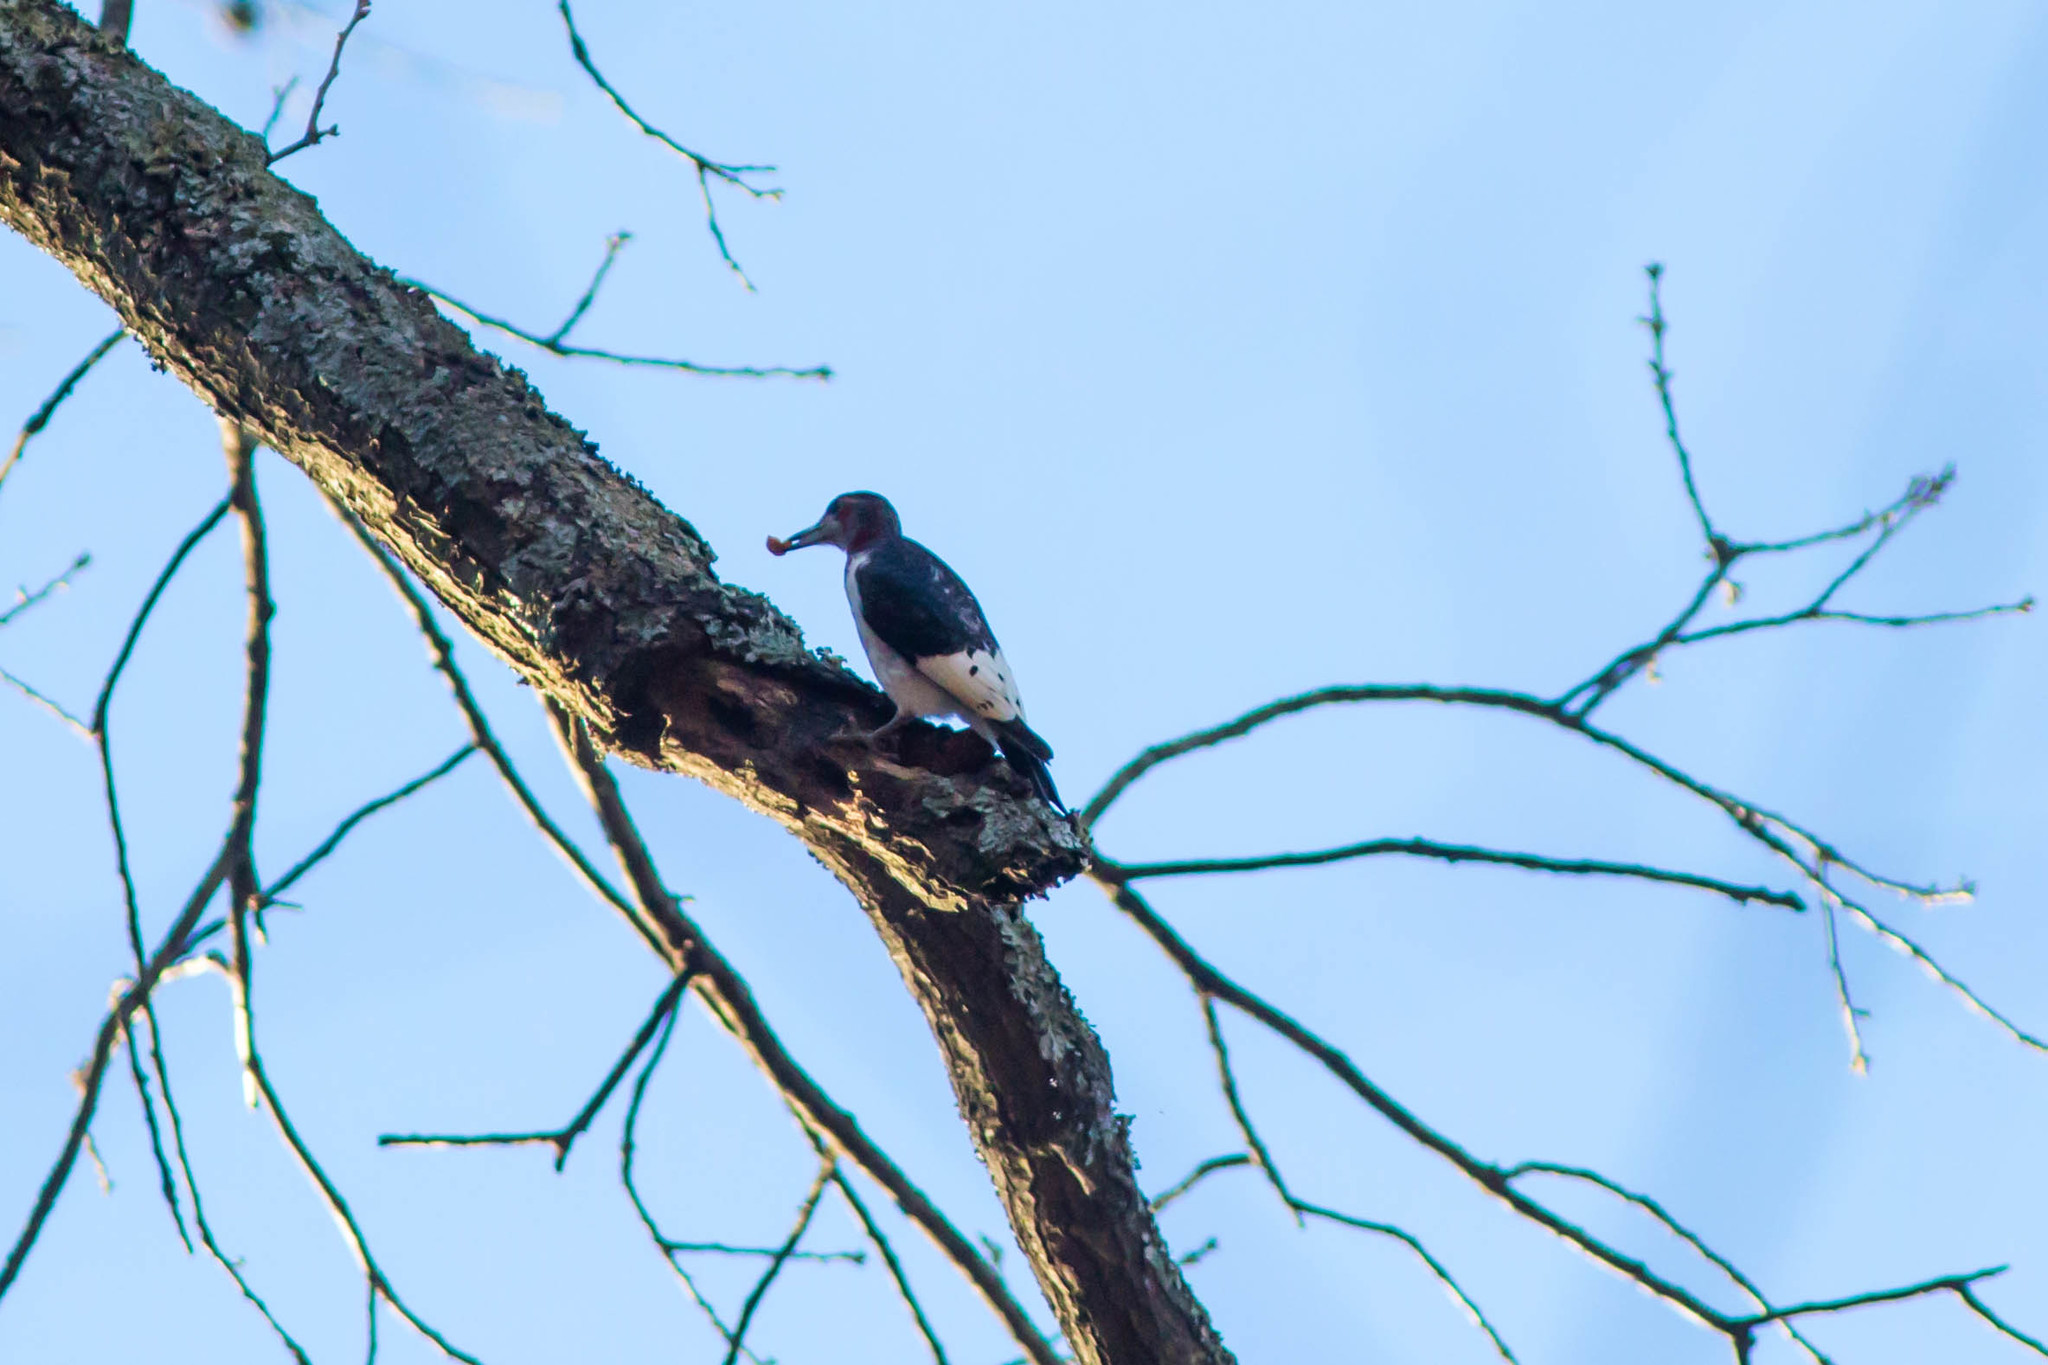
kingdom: Animalia
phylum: Chordata
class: Aves
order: Piciformes
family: Picidae
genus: Melanerpes
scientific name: Melanerpes erythrocephalus
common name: Red-headed woodpecker
